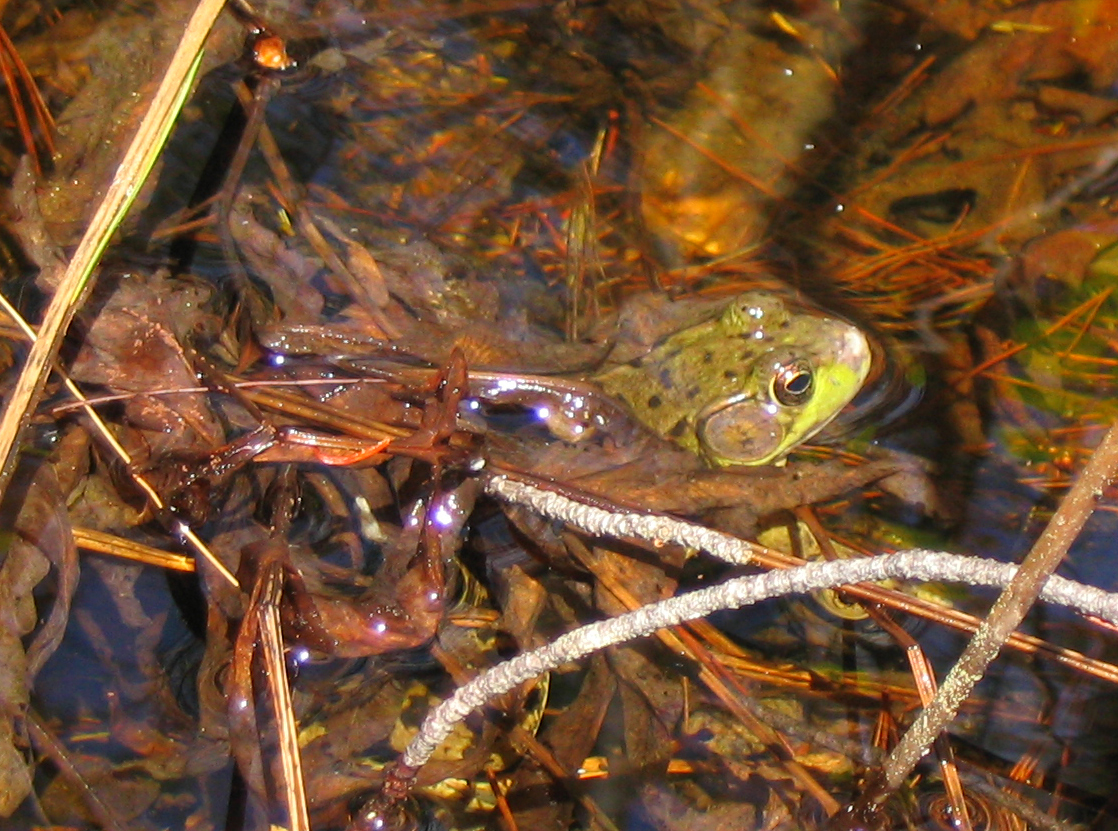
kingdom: Animalia
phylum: Chordata
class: Amphibia
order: Anura
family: Ranidae
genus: Lithobates
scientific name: Lithobates clamitans
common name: Green frog
